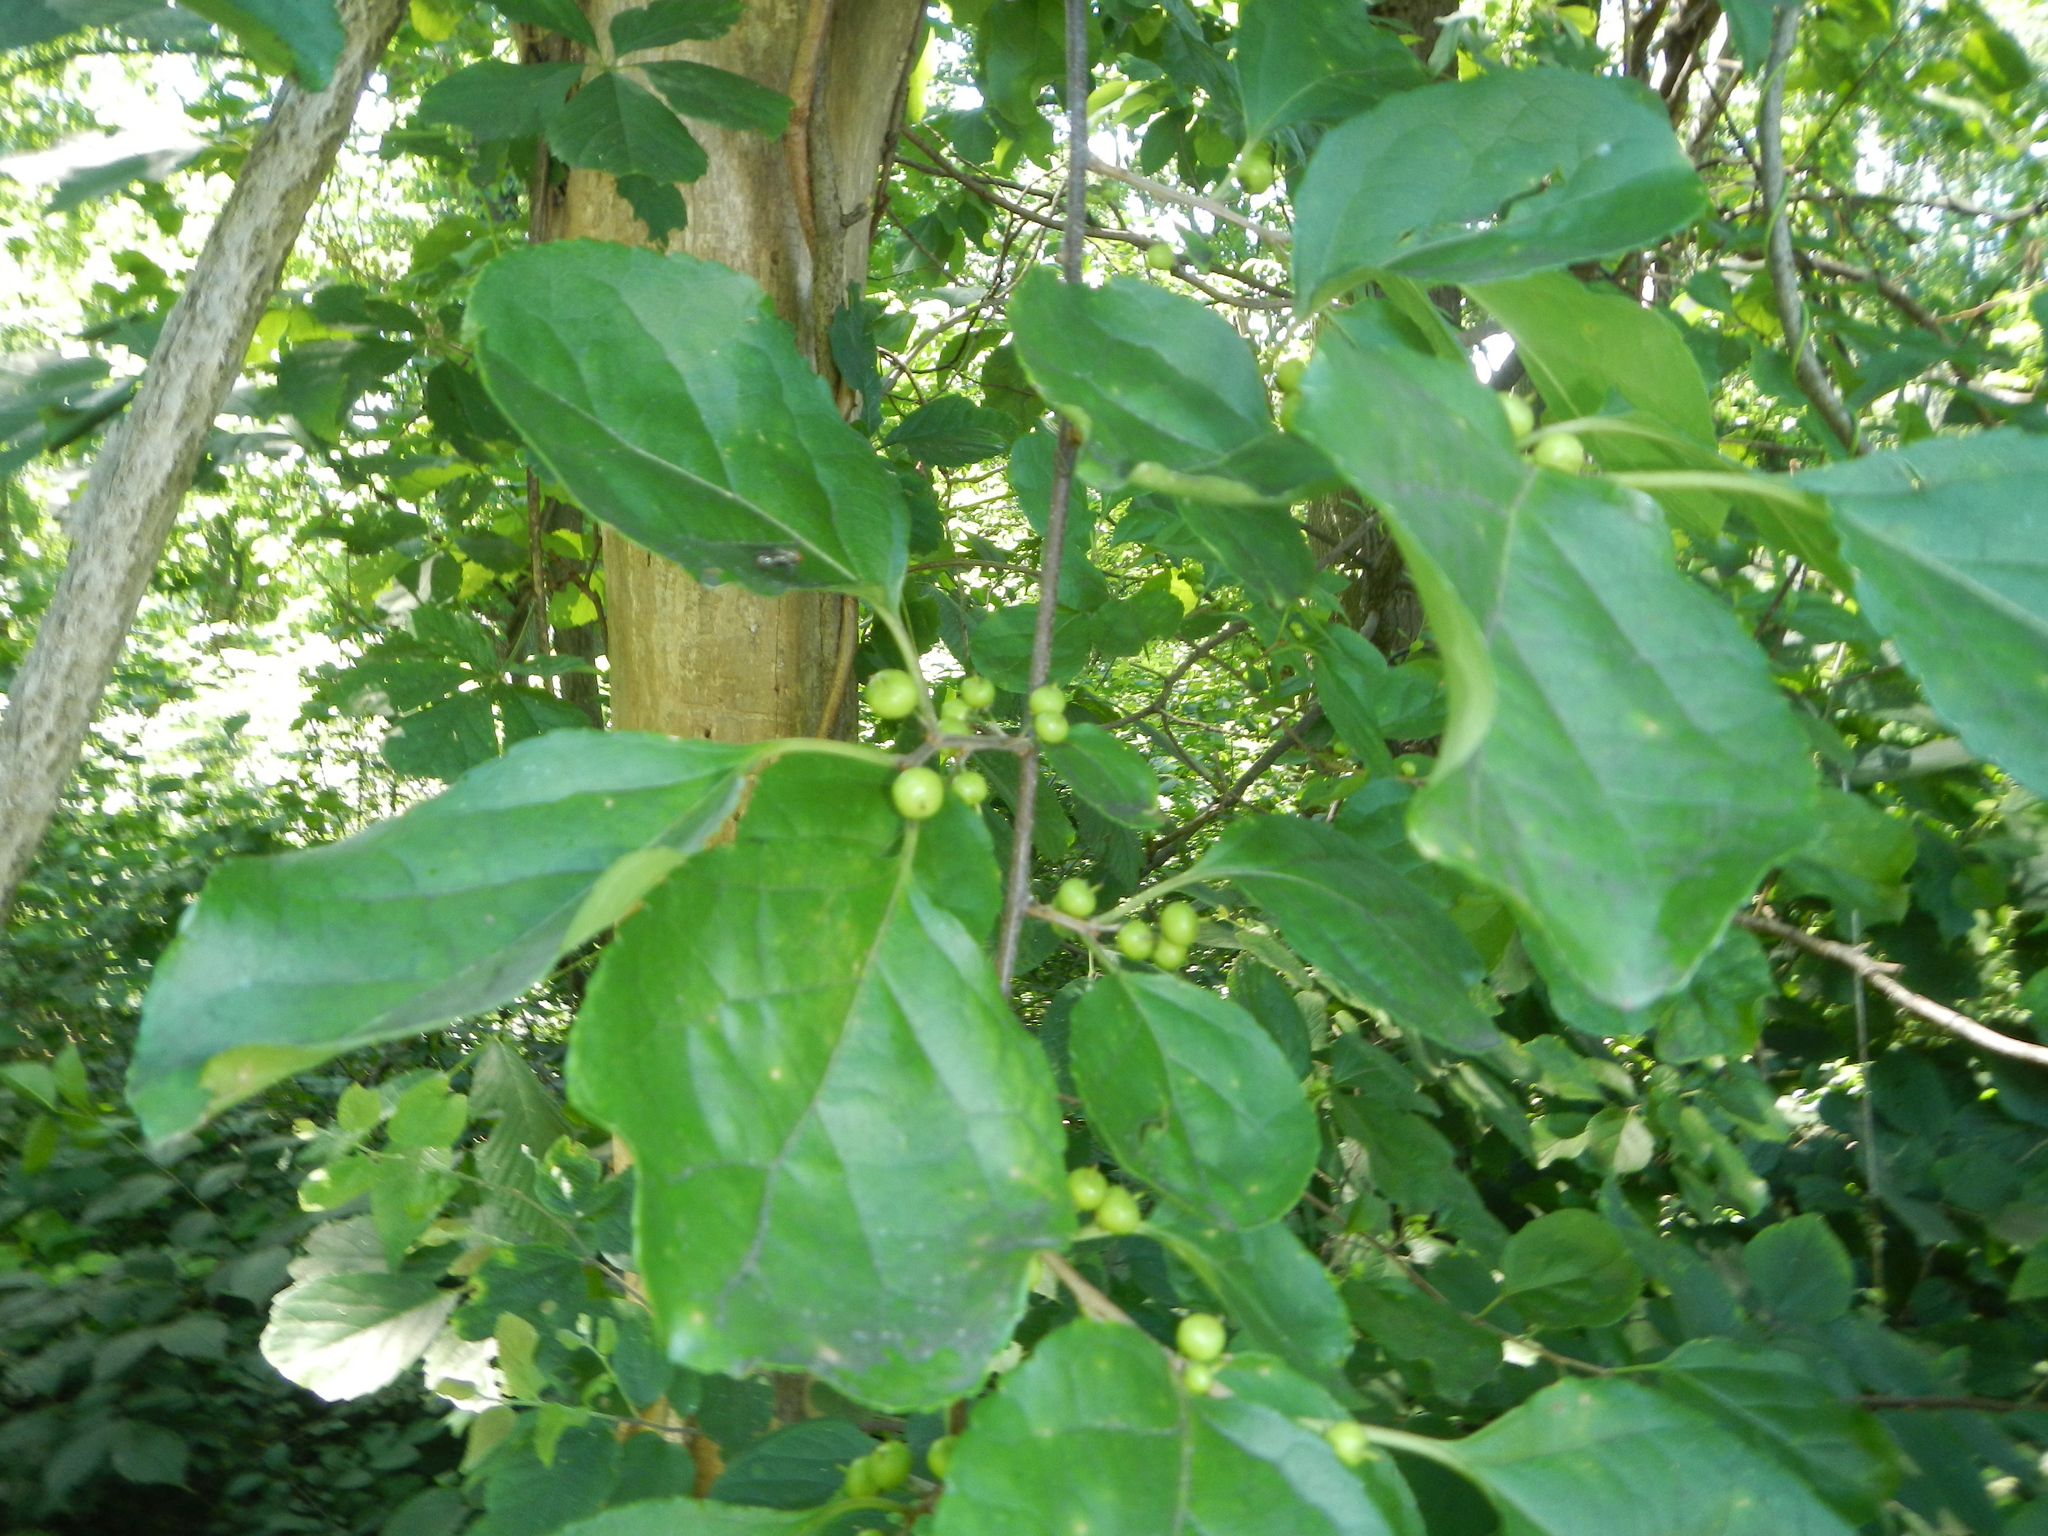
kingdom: Plantae
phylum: Tracheophyta
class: Magnoliopsida
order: Celastrales
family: Celastraceae
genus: Celastrus
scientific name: Celastrus orbiculatus
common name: Oriental bittersweet
